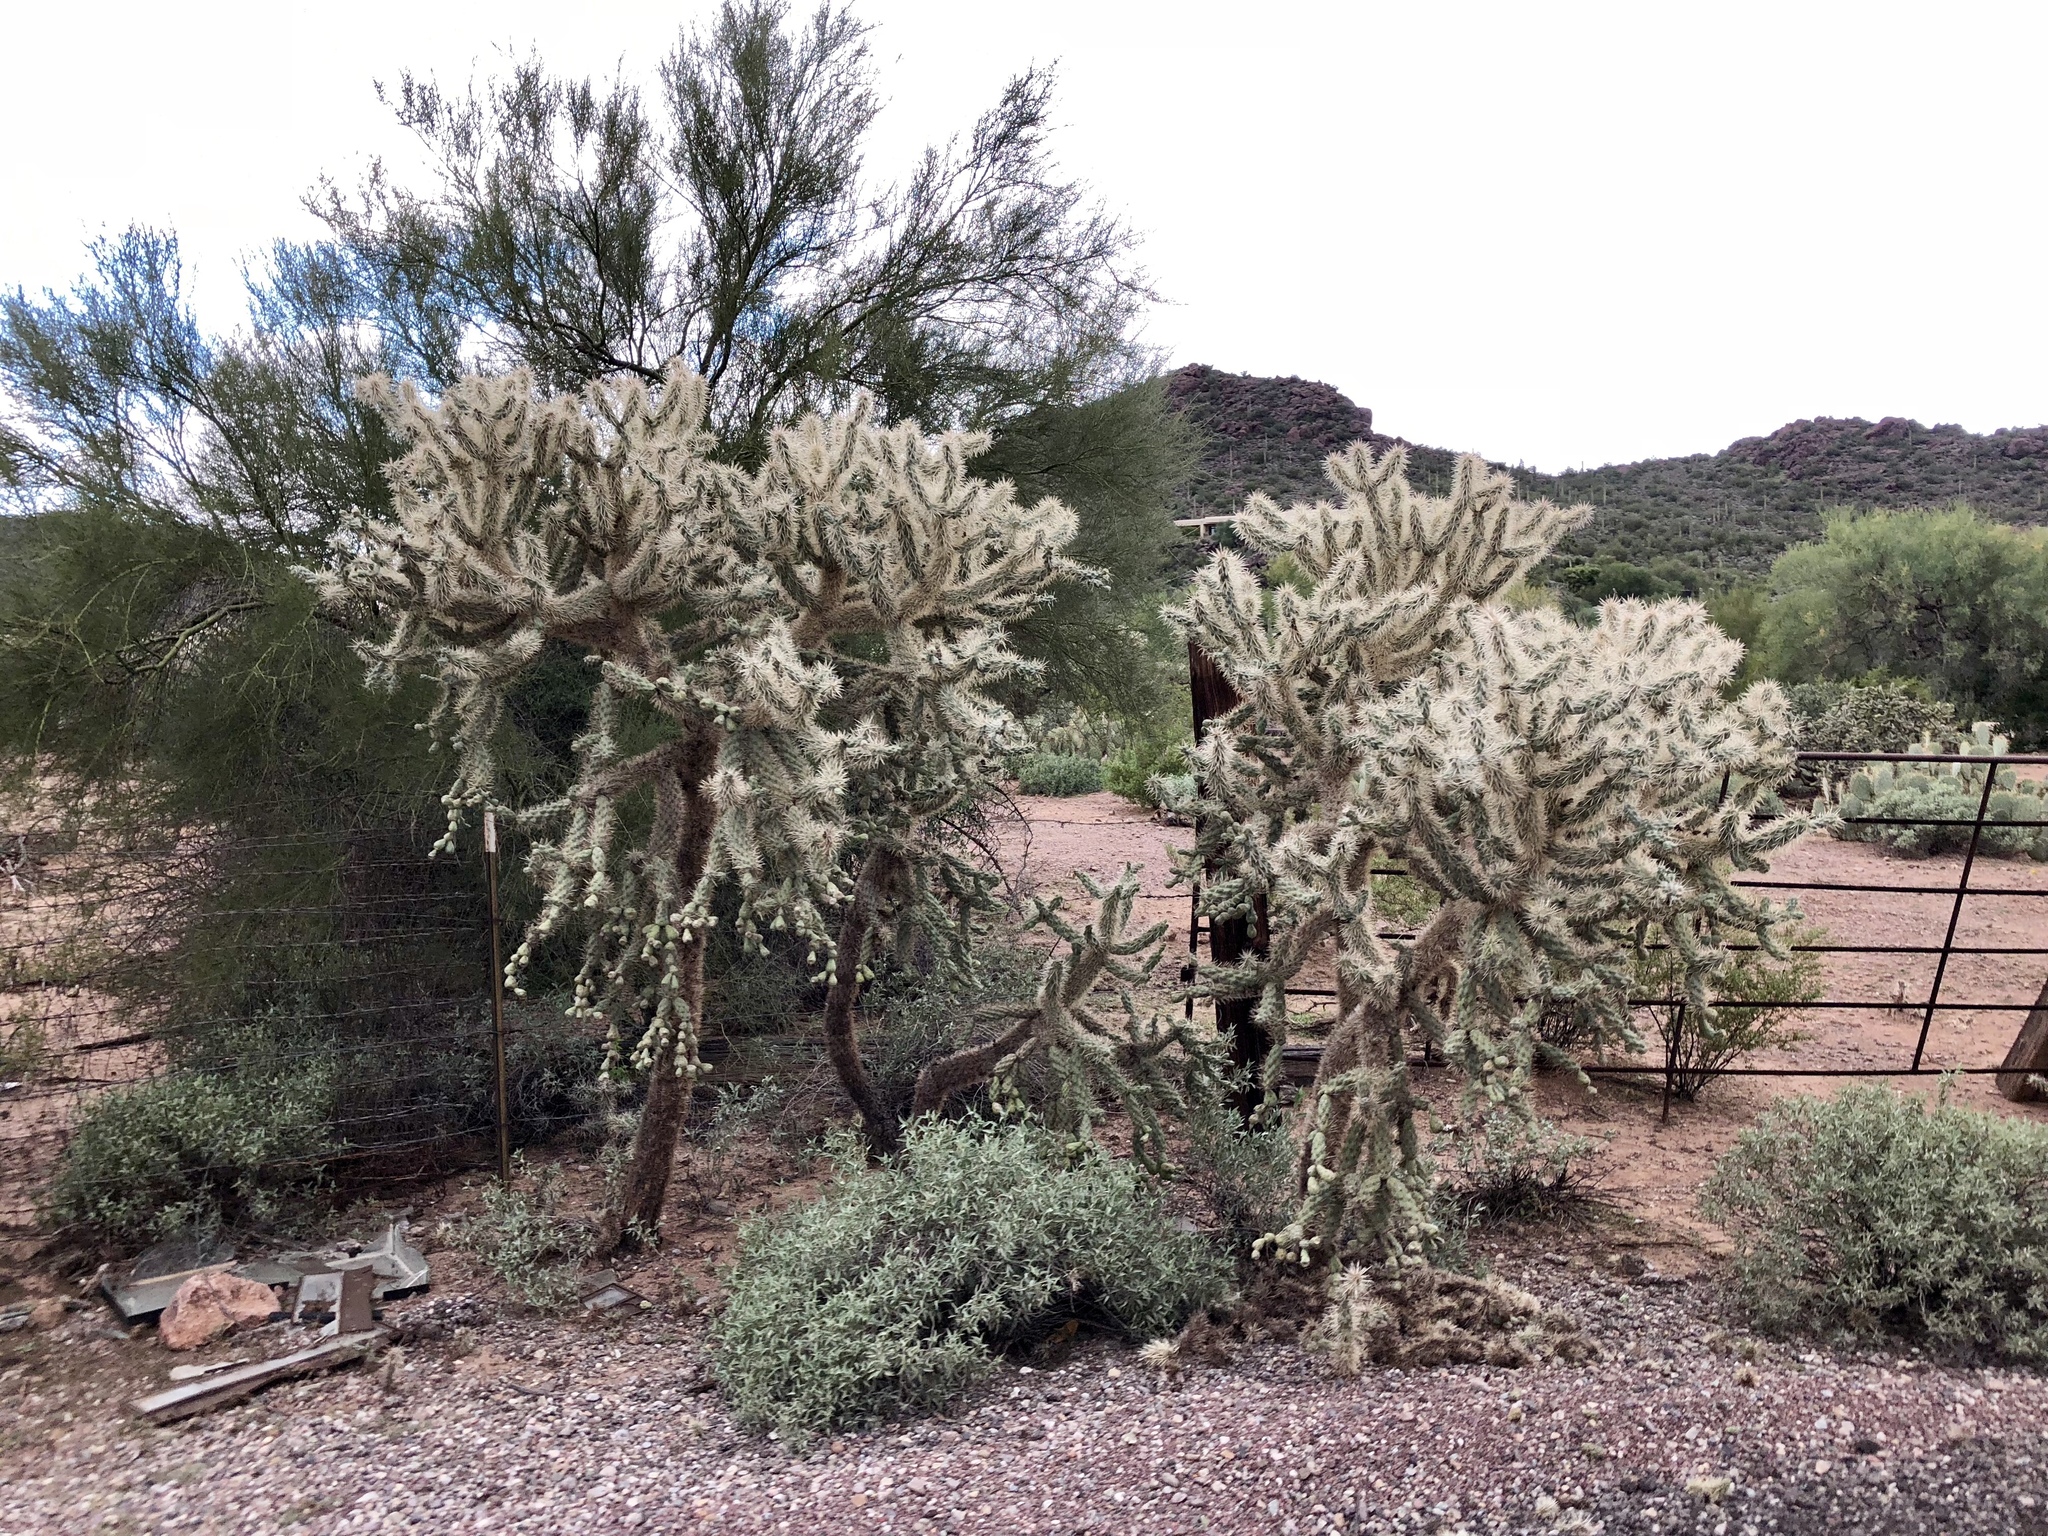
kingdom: Plantae
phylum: Tracheophyta
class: Magnoliopsida
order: Caryophyllales
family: Cactaceae
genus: Cylindropuntia
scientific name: Cylindropuntia fulgida
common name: Jumping cholla
